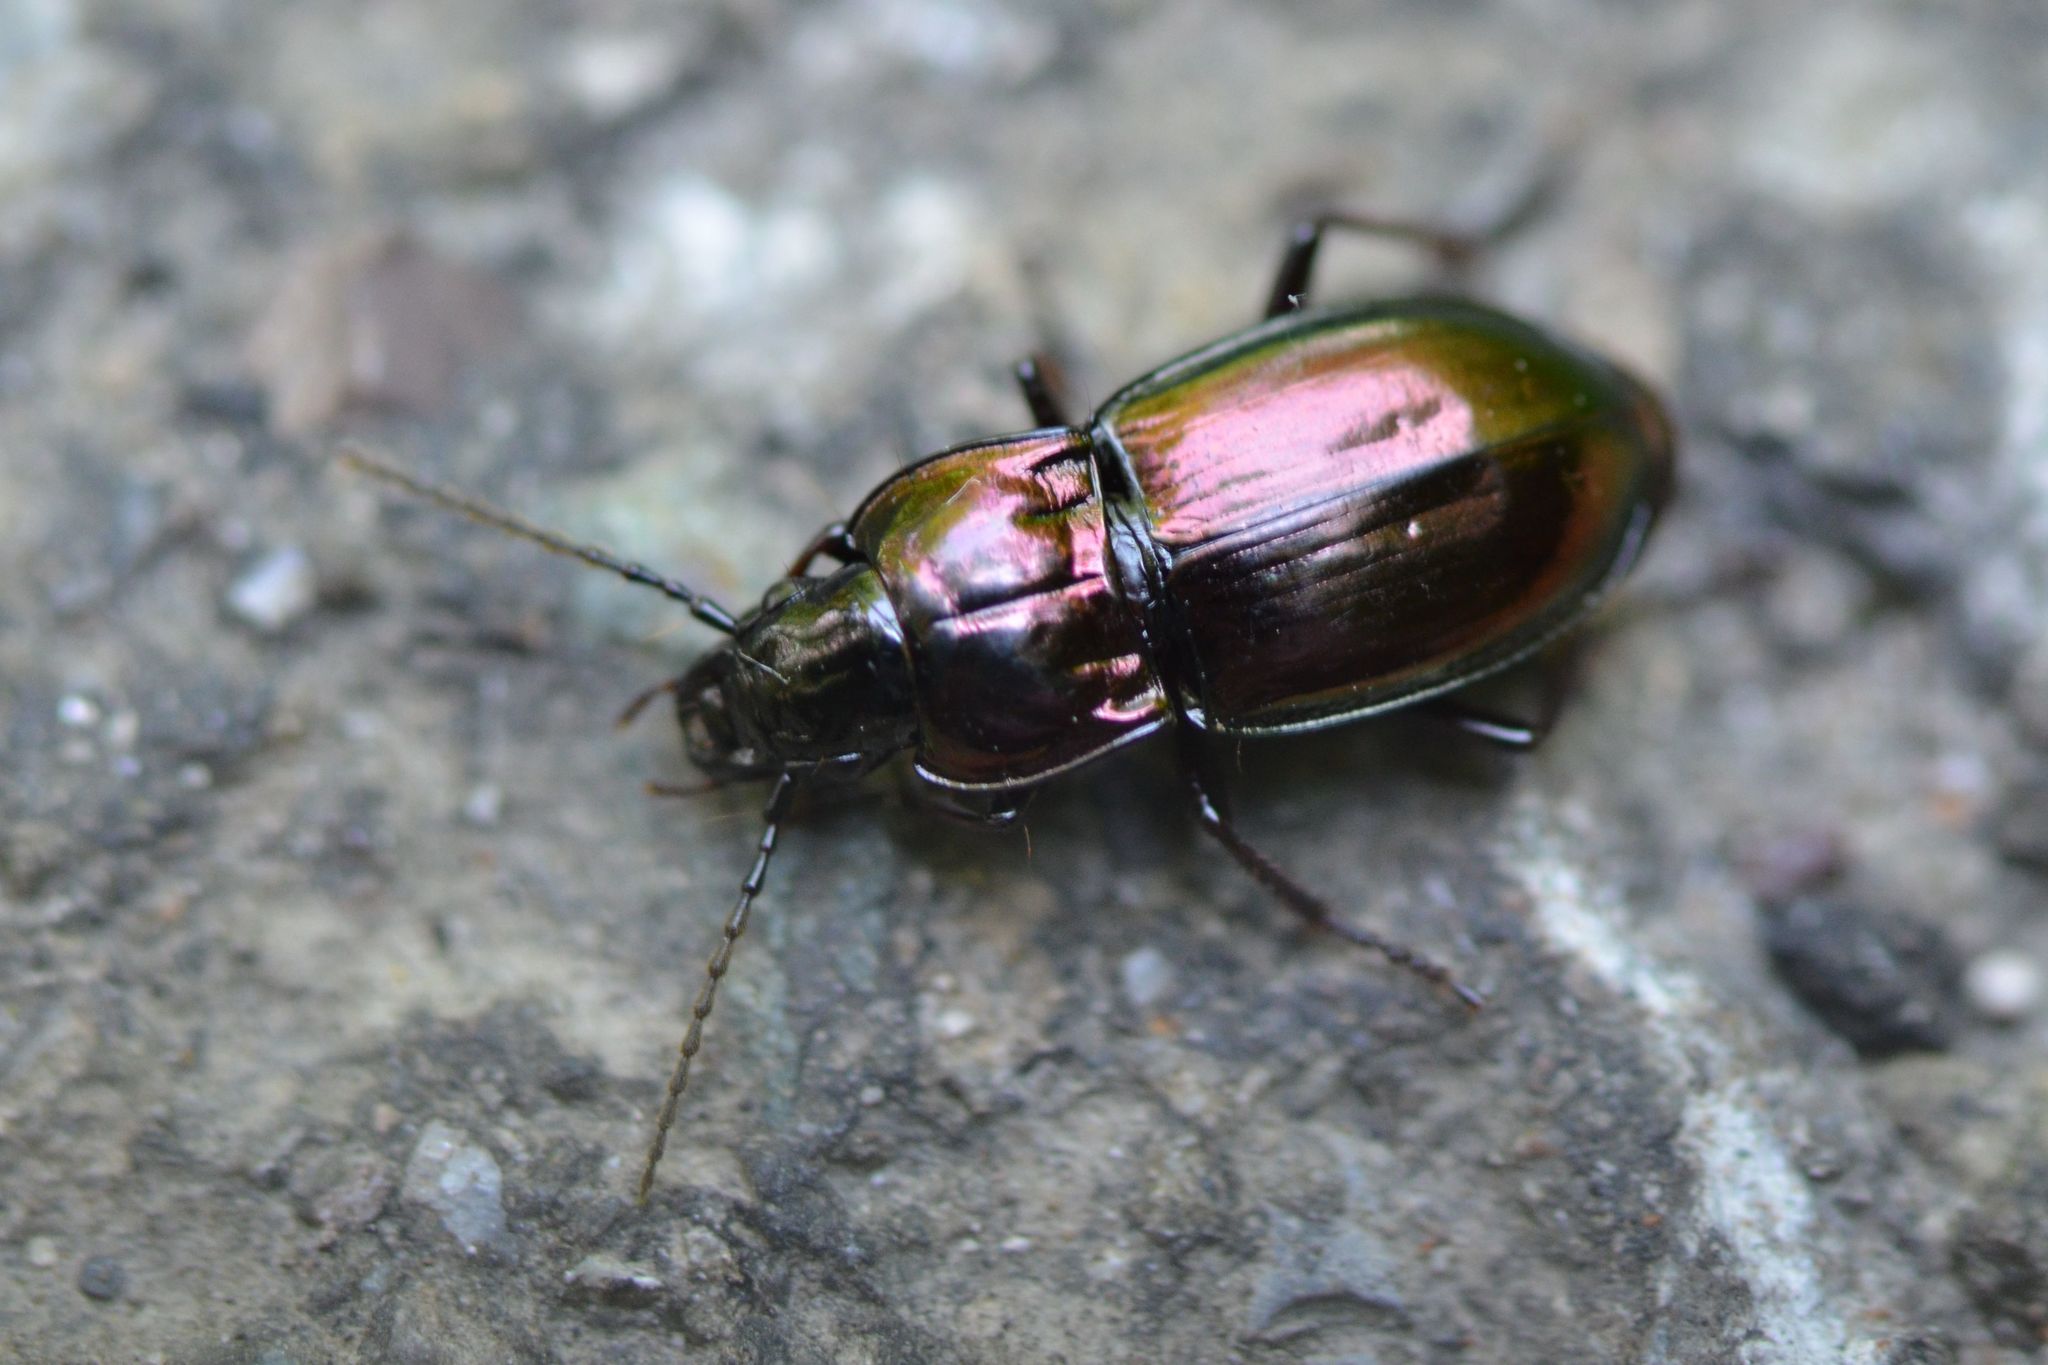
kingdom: Animalia
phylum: Arthropoda
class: Insecta
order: Coleoptera
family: Carabidae
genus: Pterostichus
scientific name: Pterostichus burmeisteri
